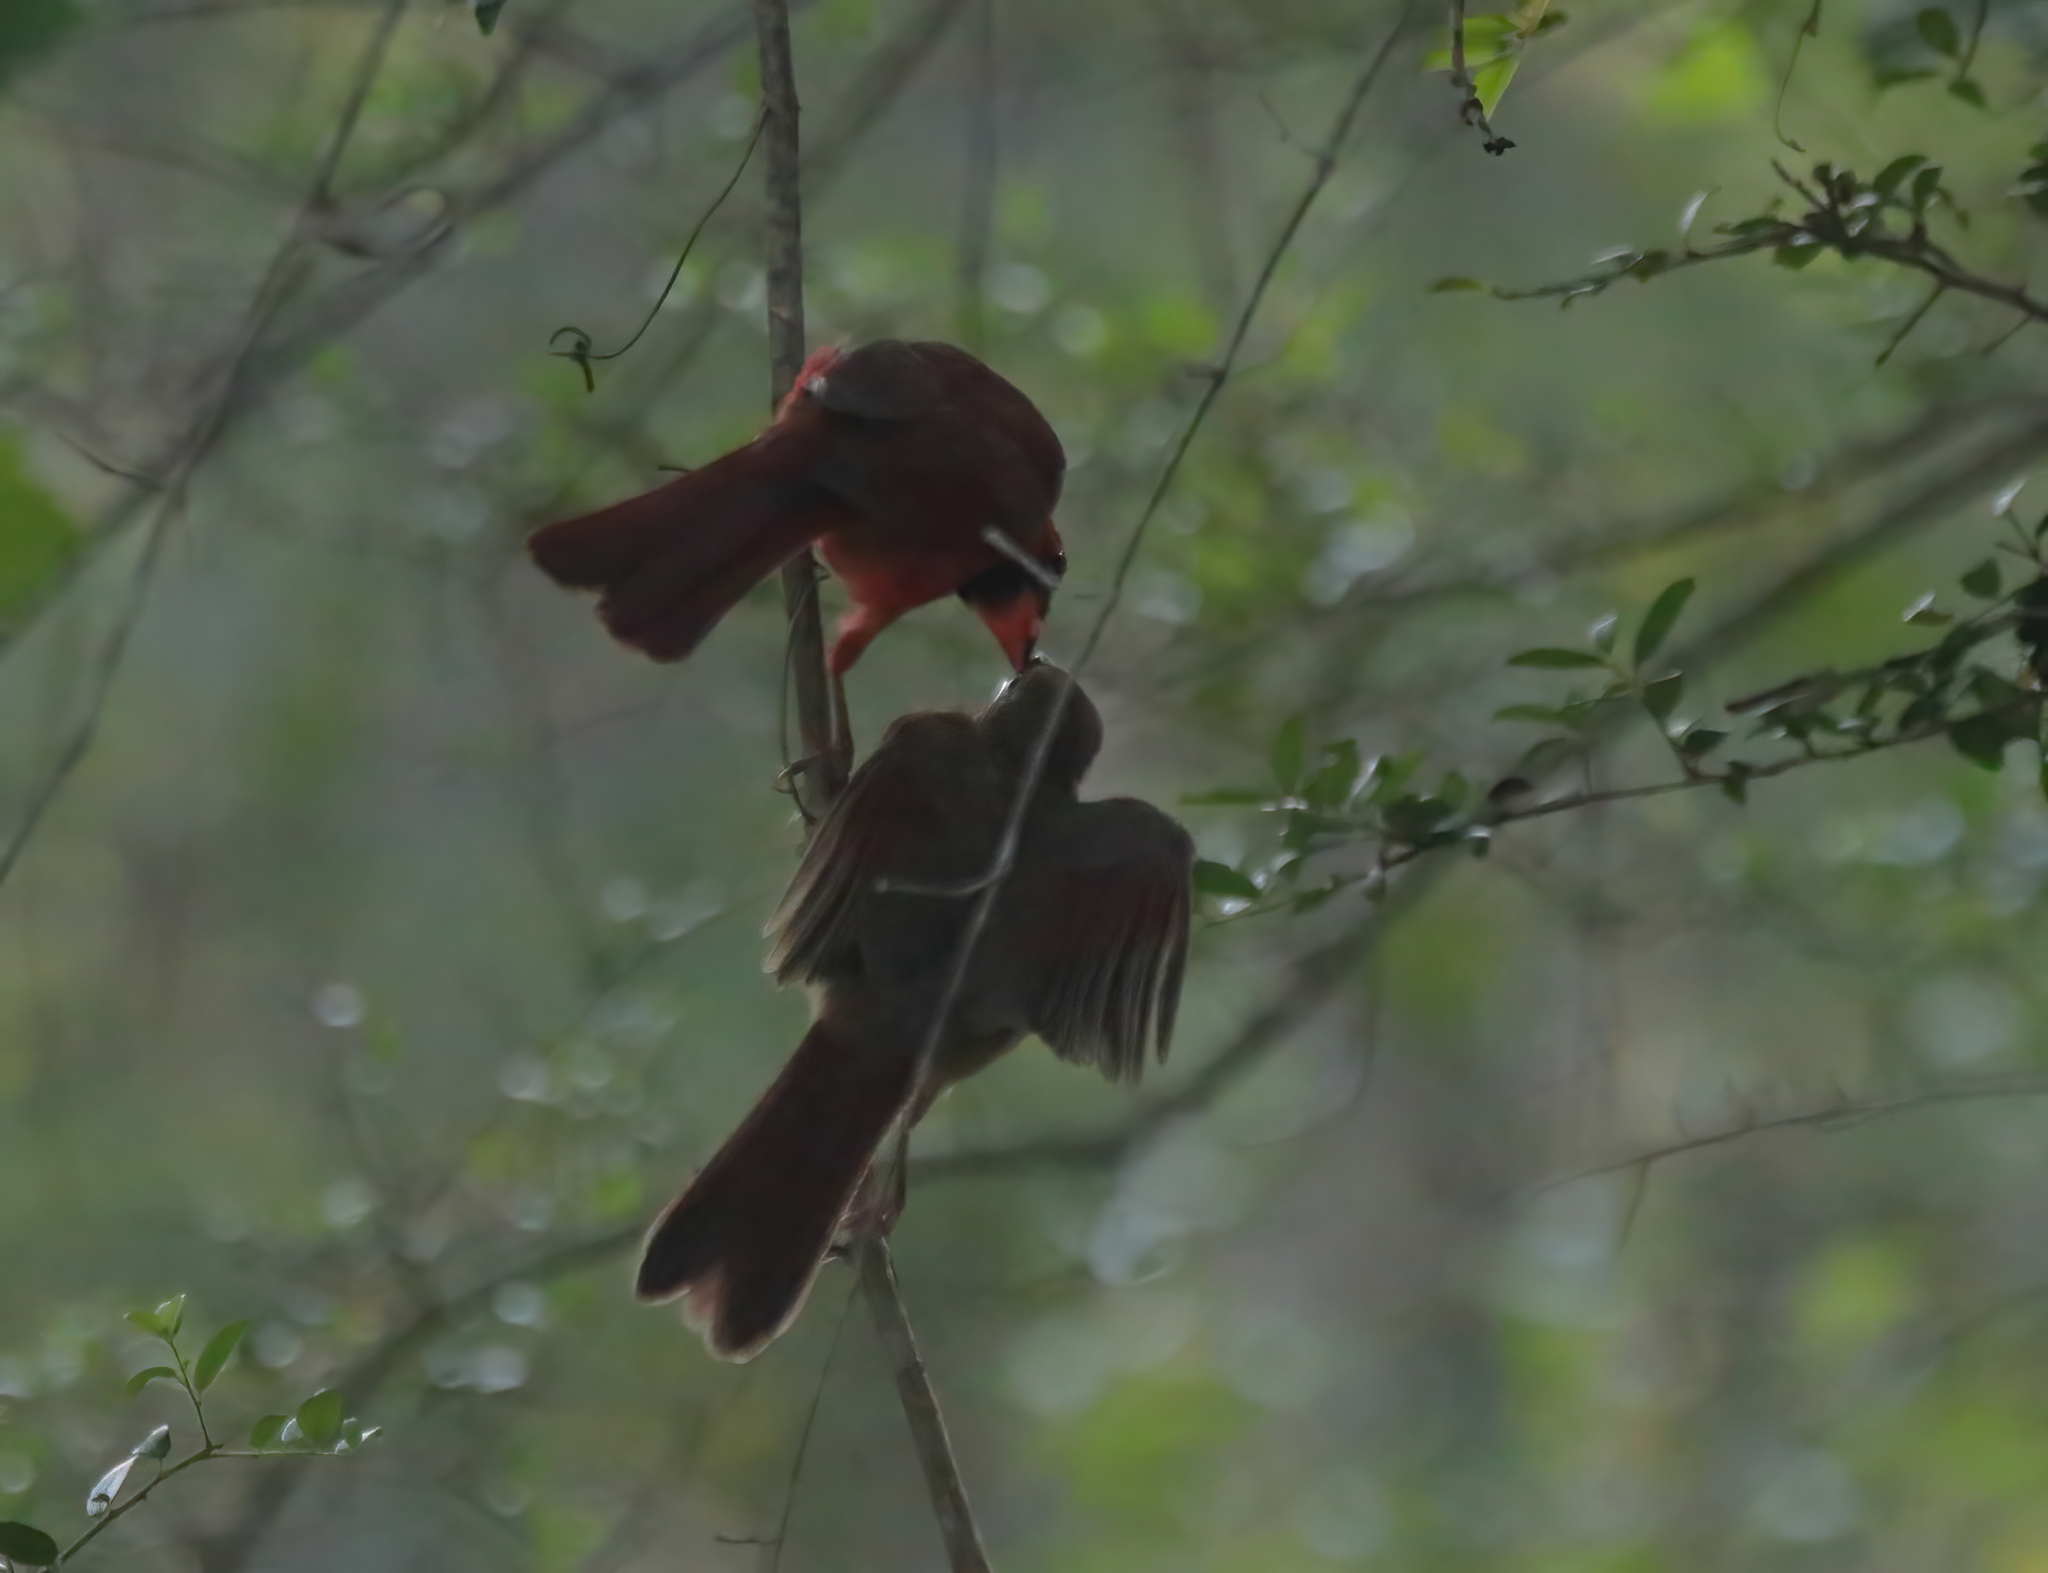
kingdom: Animalia
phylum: Chordata
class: Aves
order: Passeriformes
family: Cardinalidae
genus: Cardinalis
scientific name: Cardinalis cardinalis
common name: Northern cardinal
